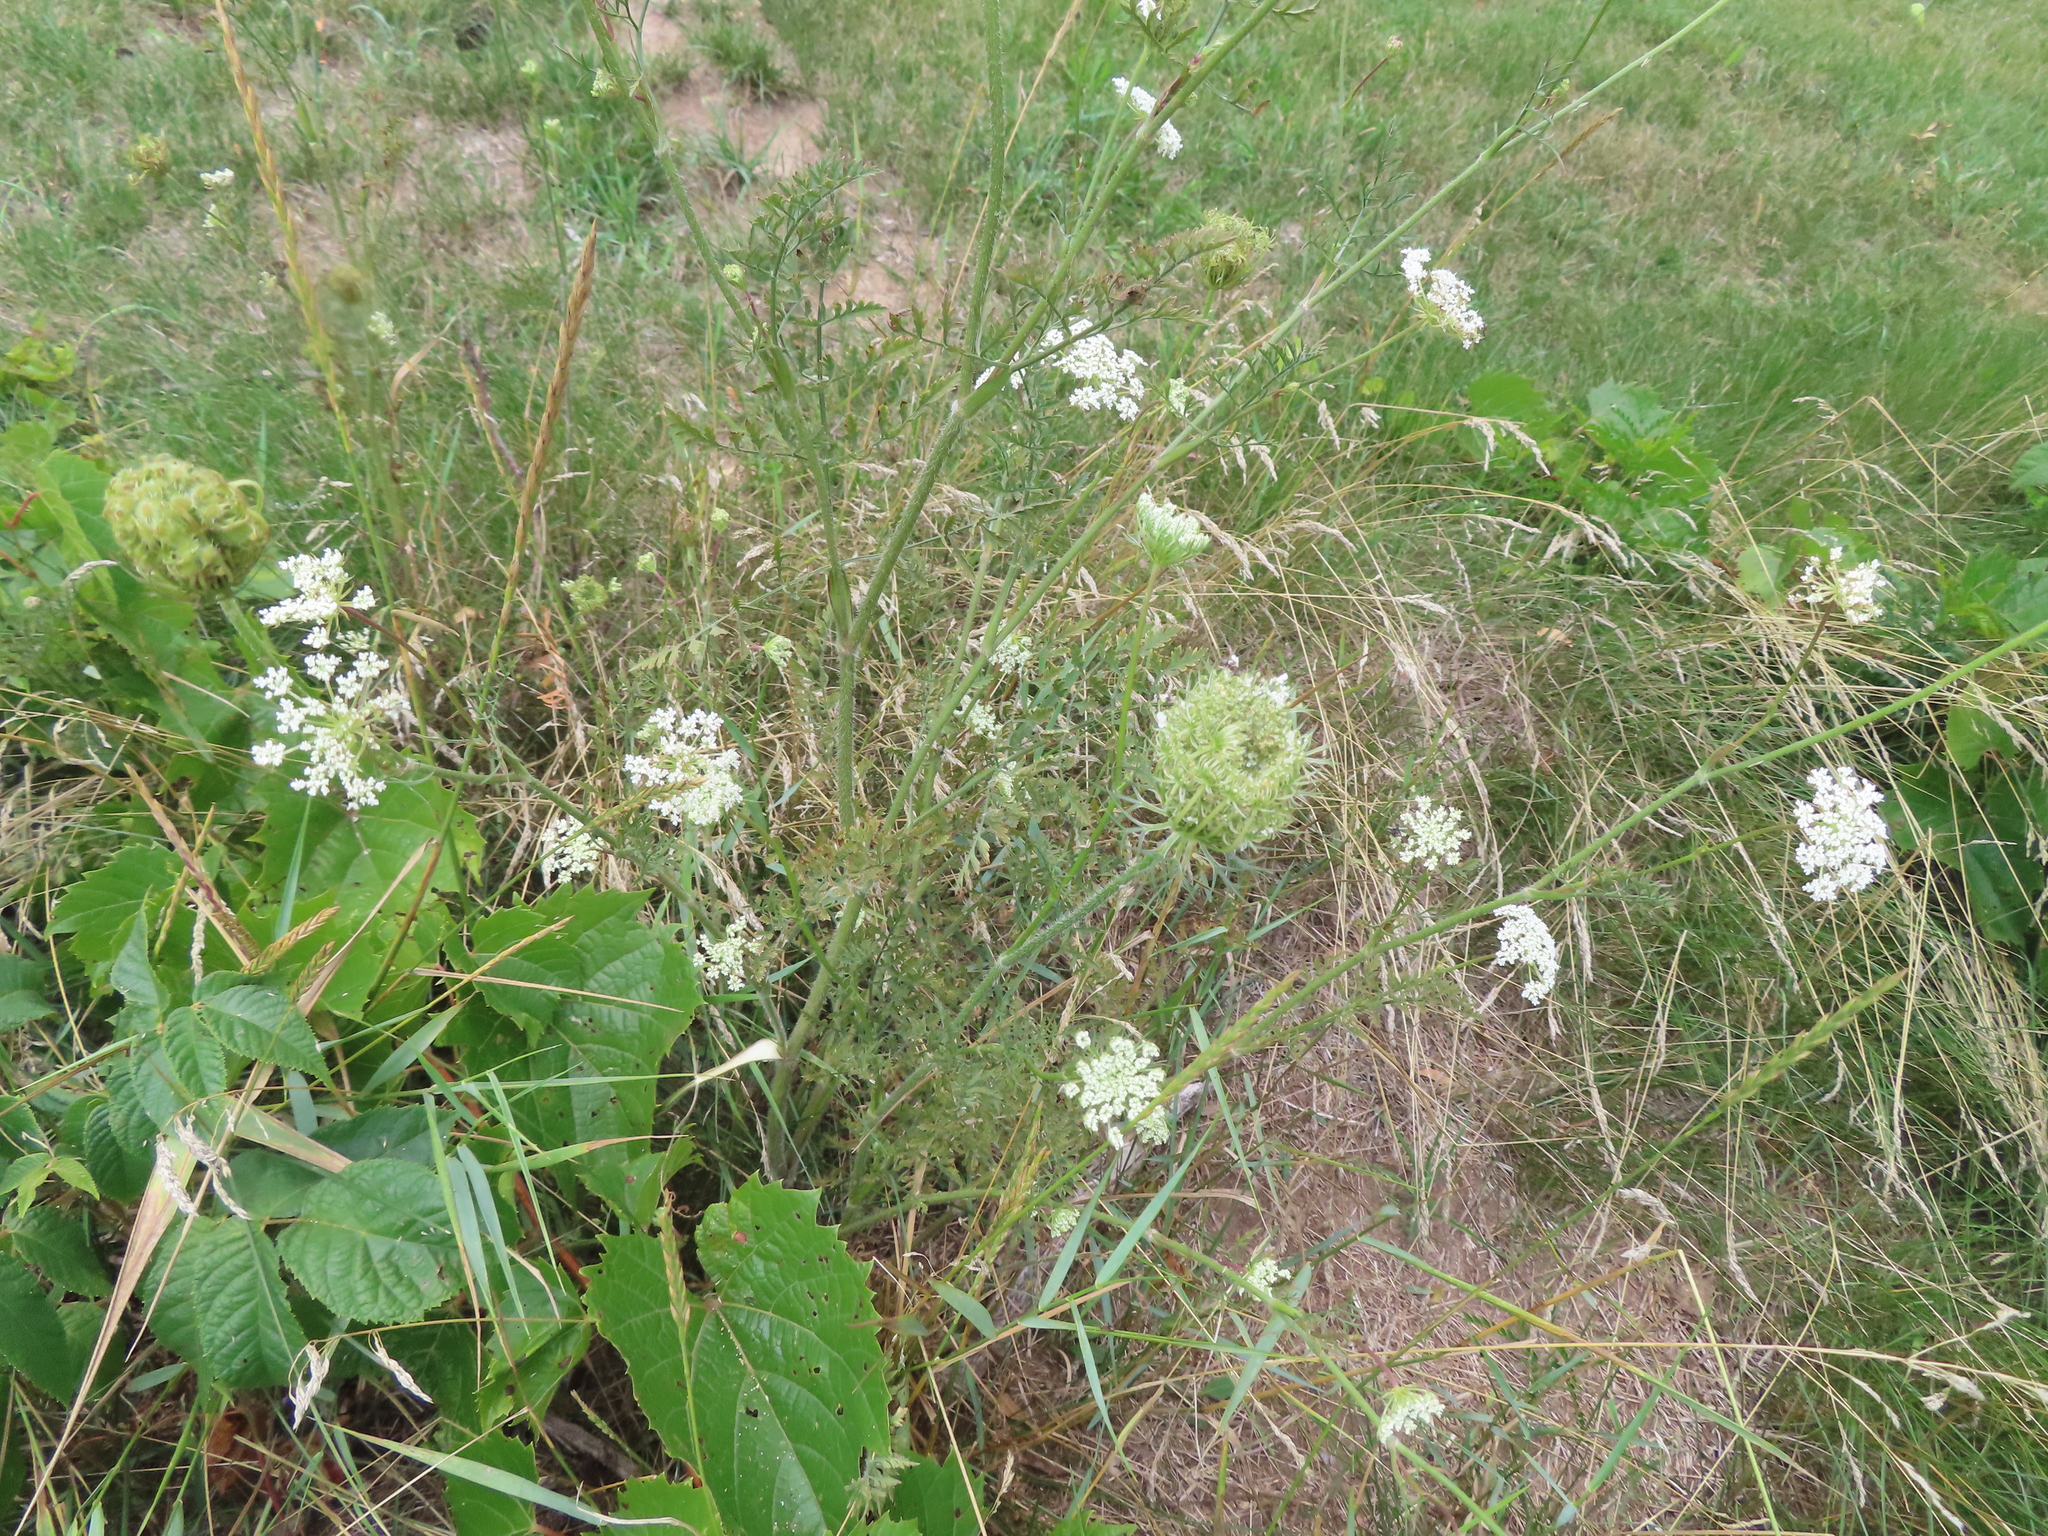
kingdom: Plantae
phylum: Tracheophyta
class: Magnoliopsida
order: Apiales
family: Apiaceae
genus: Daucus
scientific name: Daucus carota
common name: Wild carrot
